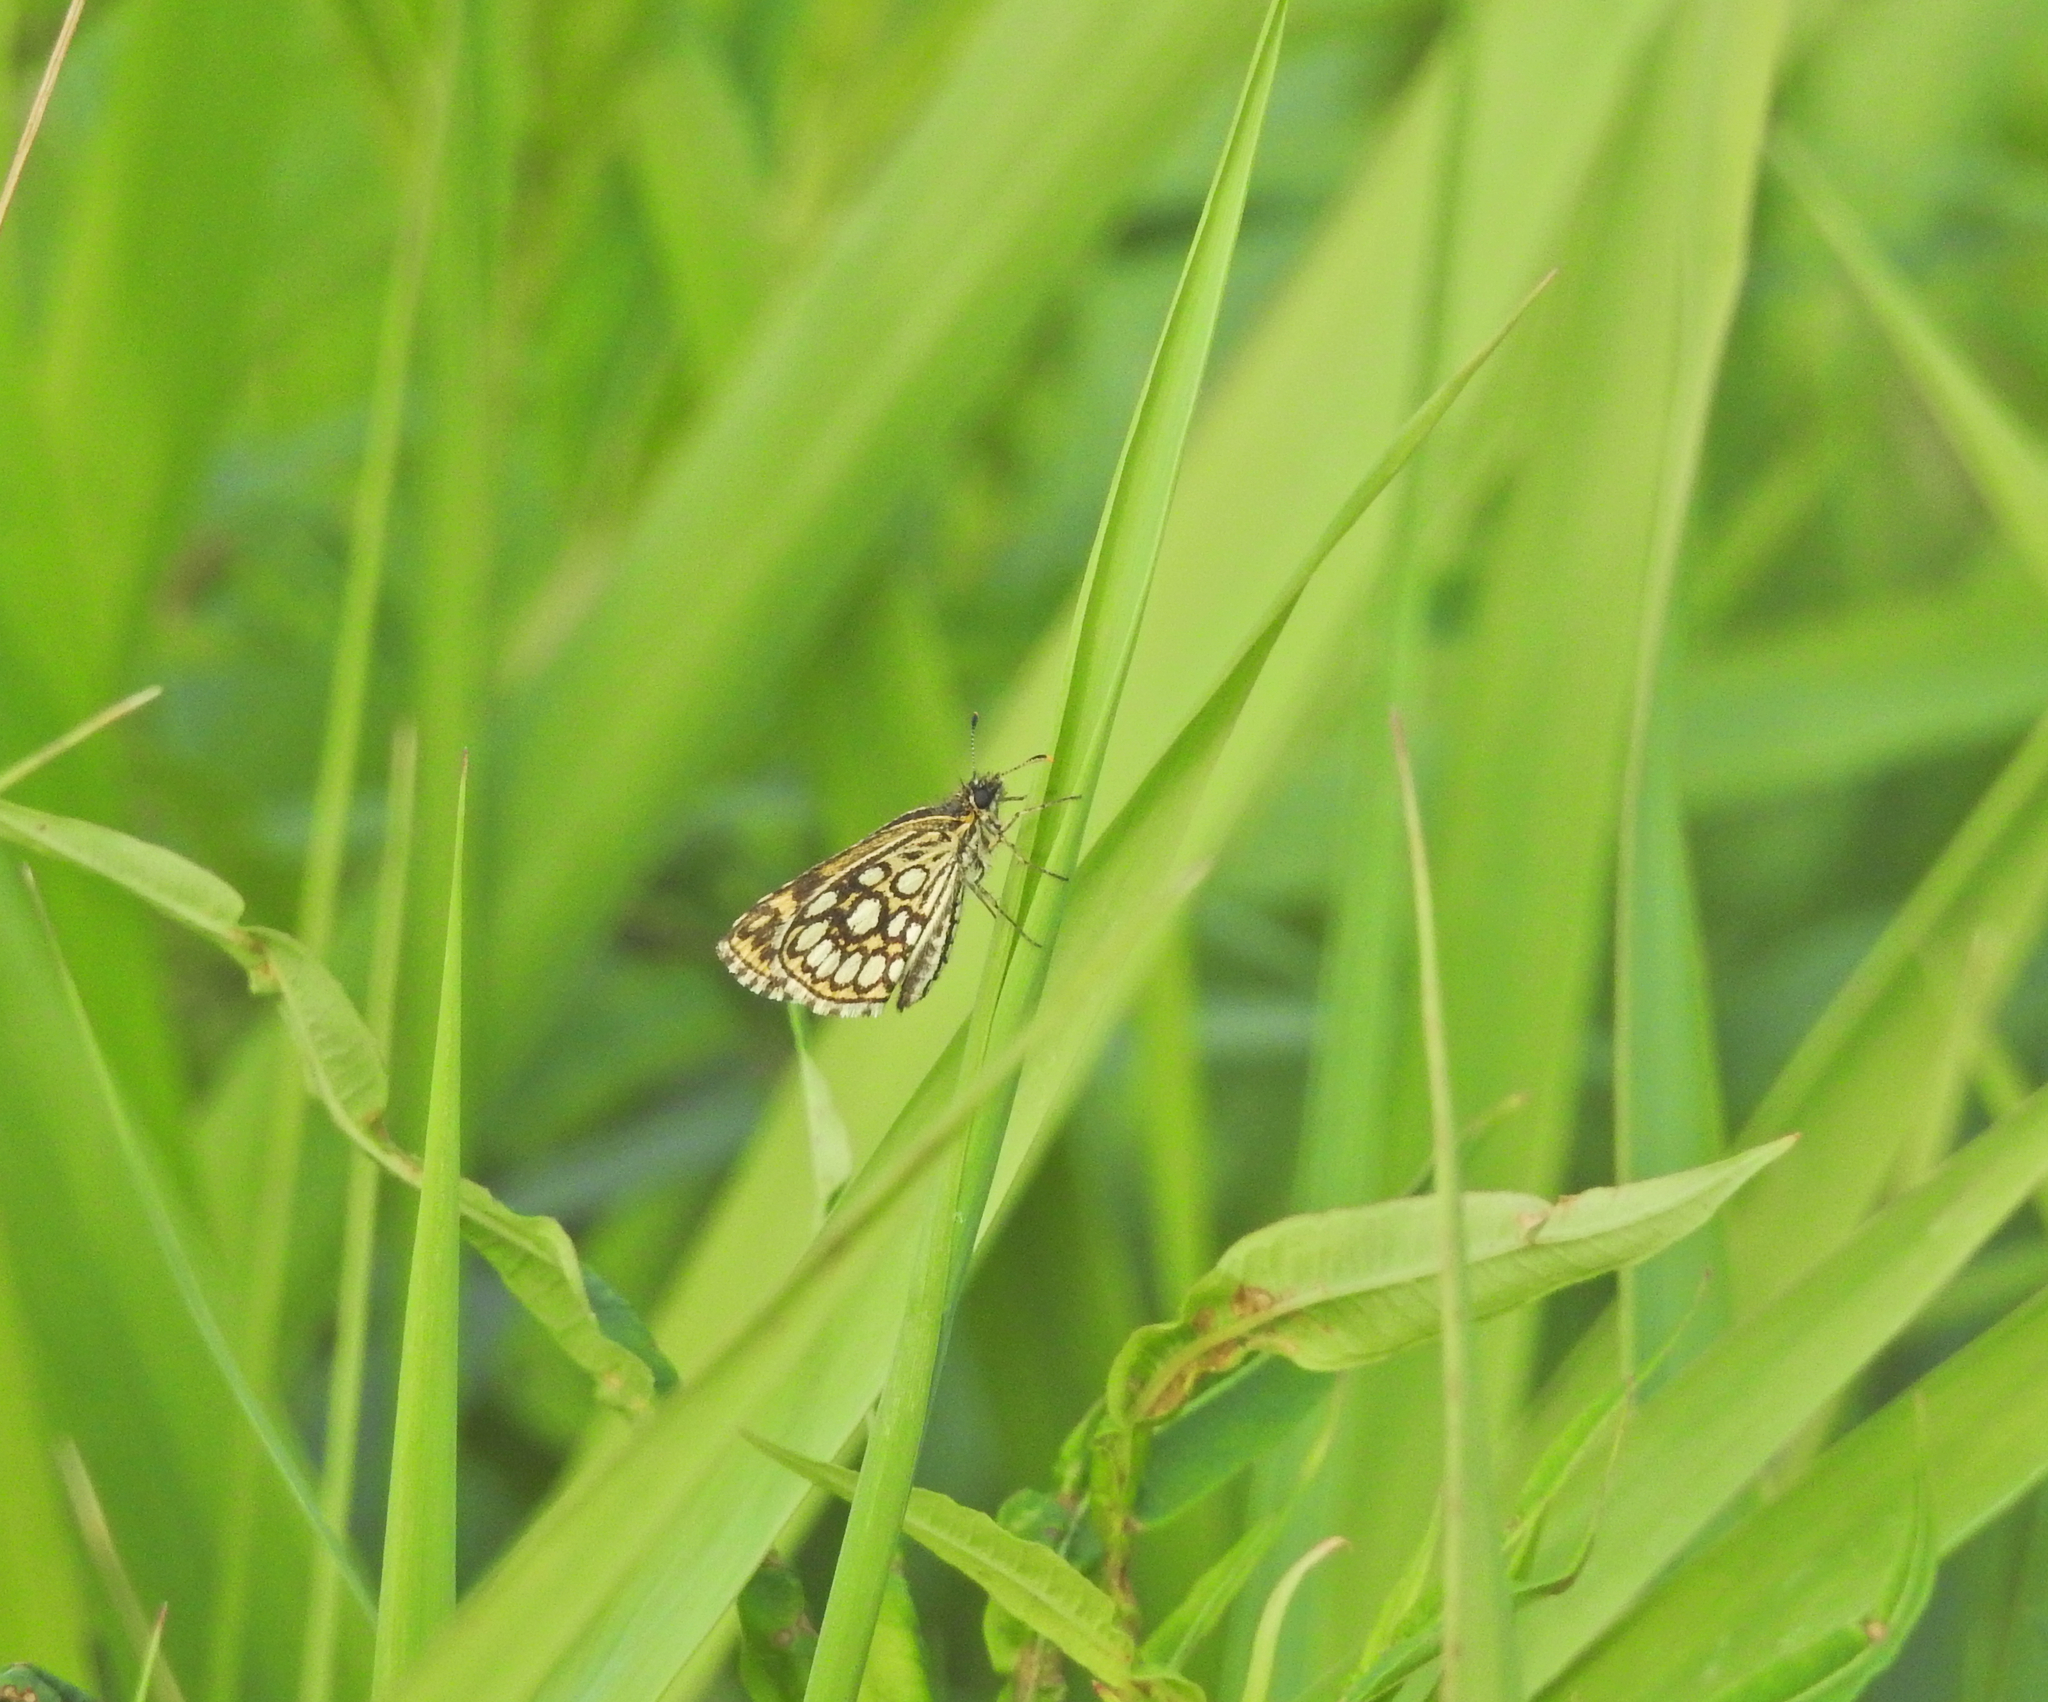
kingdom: Animalia
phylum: Arthropoda
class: Insecta
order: Lepidoptera
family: Hesperiidae
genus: Heteropterus
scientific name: Heteropterus morpheus
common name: Large chequered skipper
